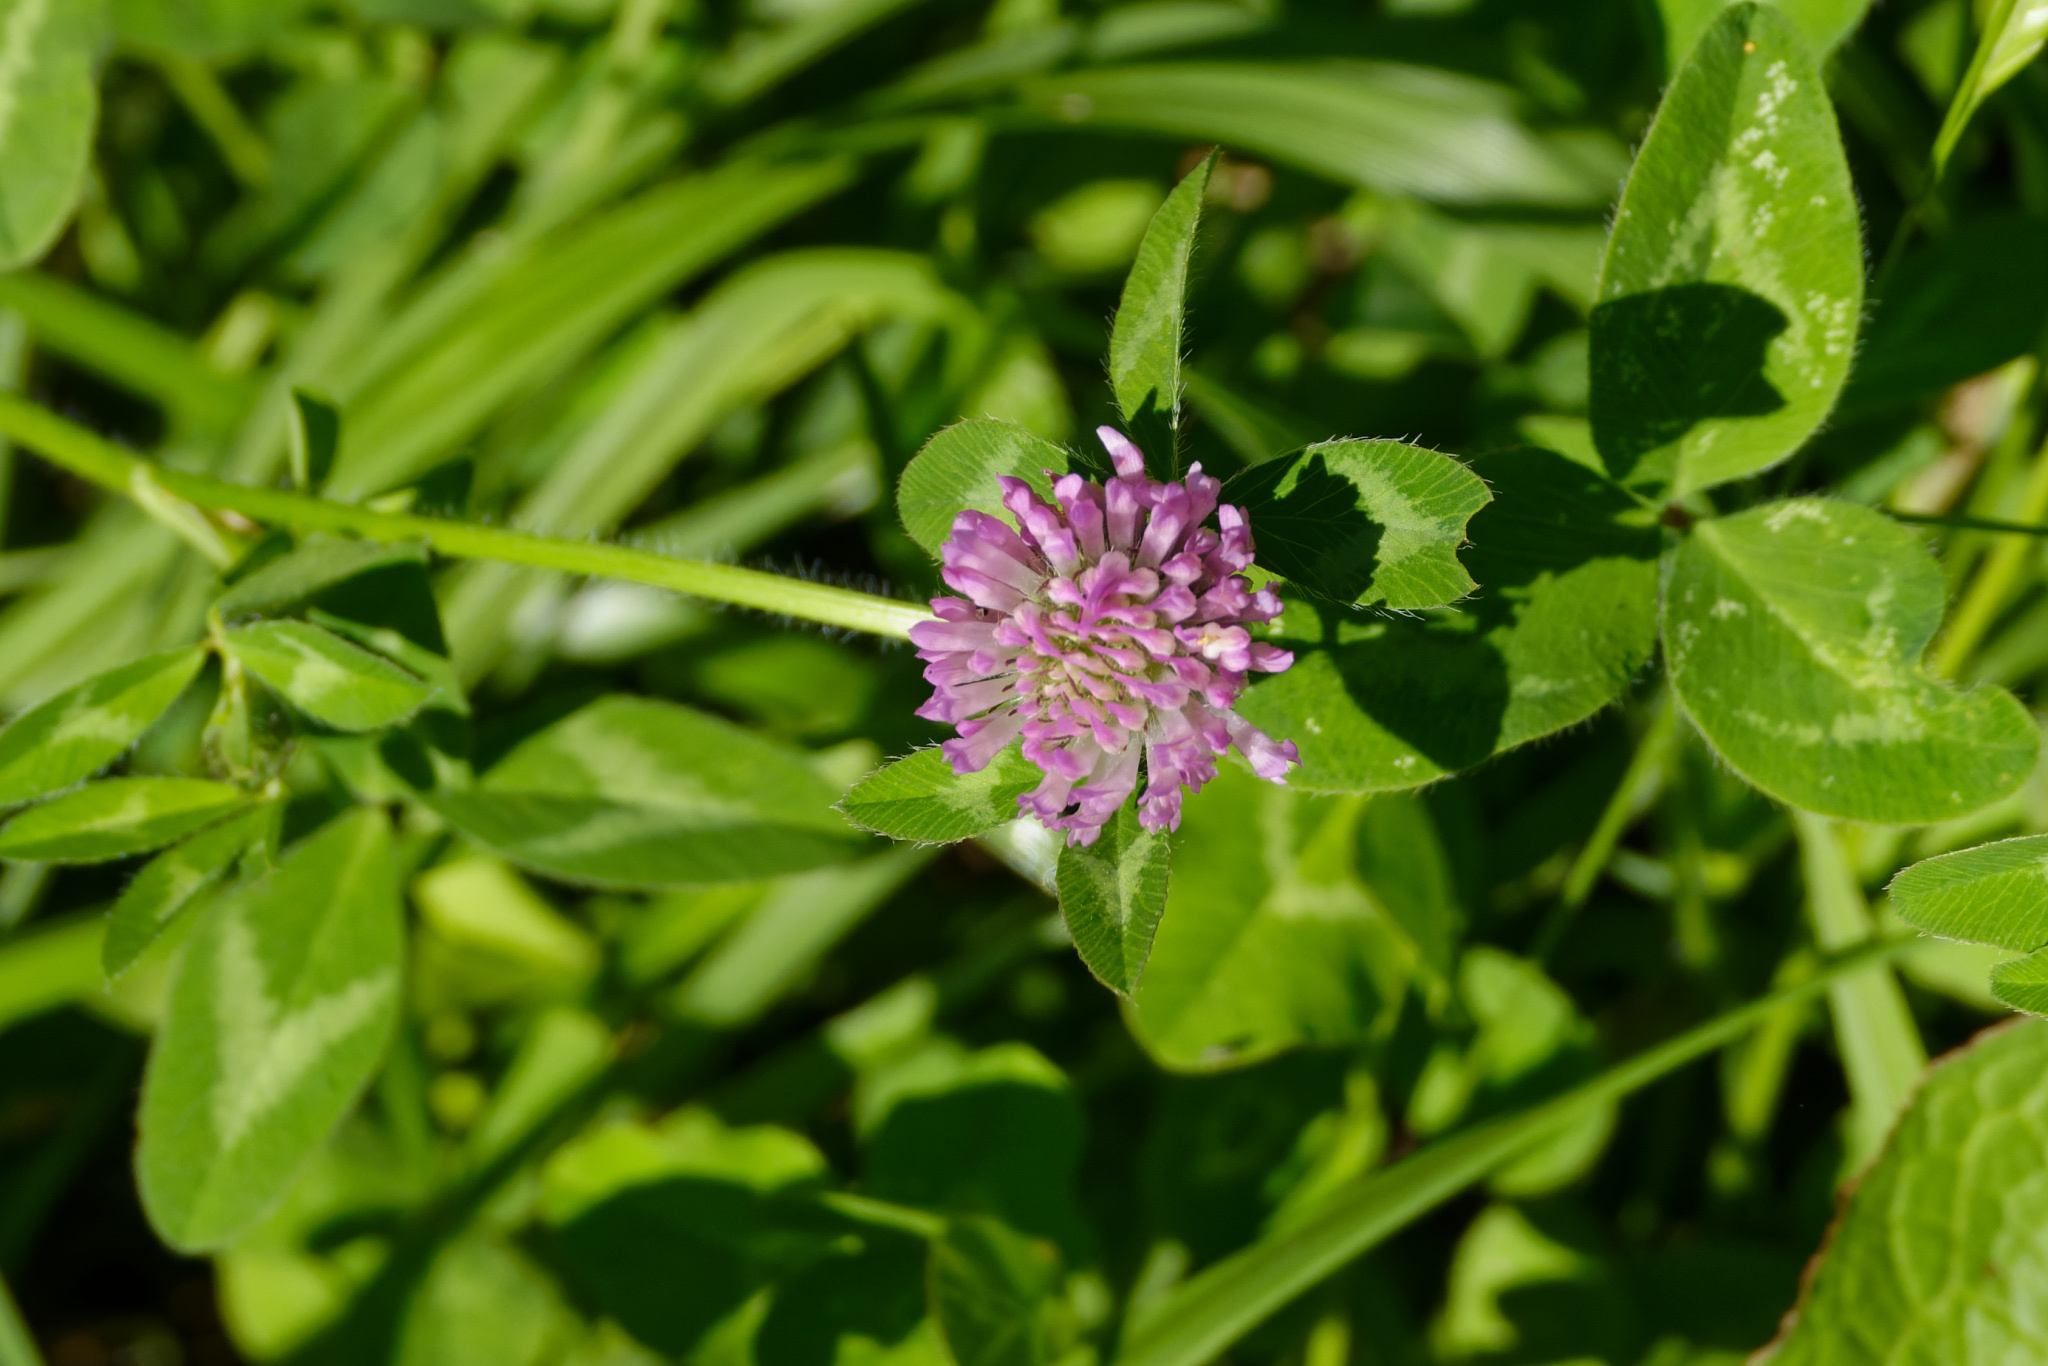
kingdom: Plantae
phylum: Tracheophyta
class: Magnoliopsida
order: Fabales
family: Fabaceae
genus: Trifolium
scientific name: Trifolium pratense
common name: Red clover
